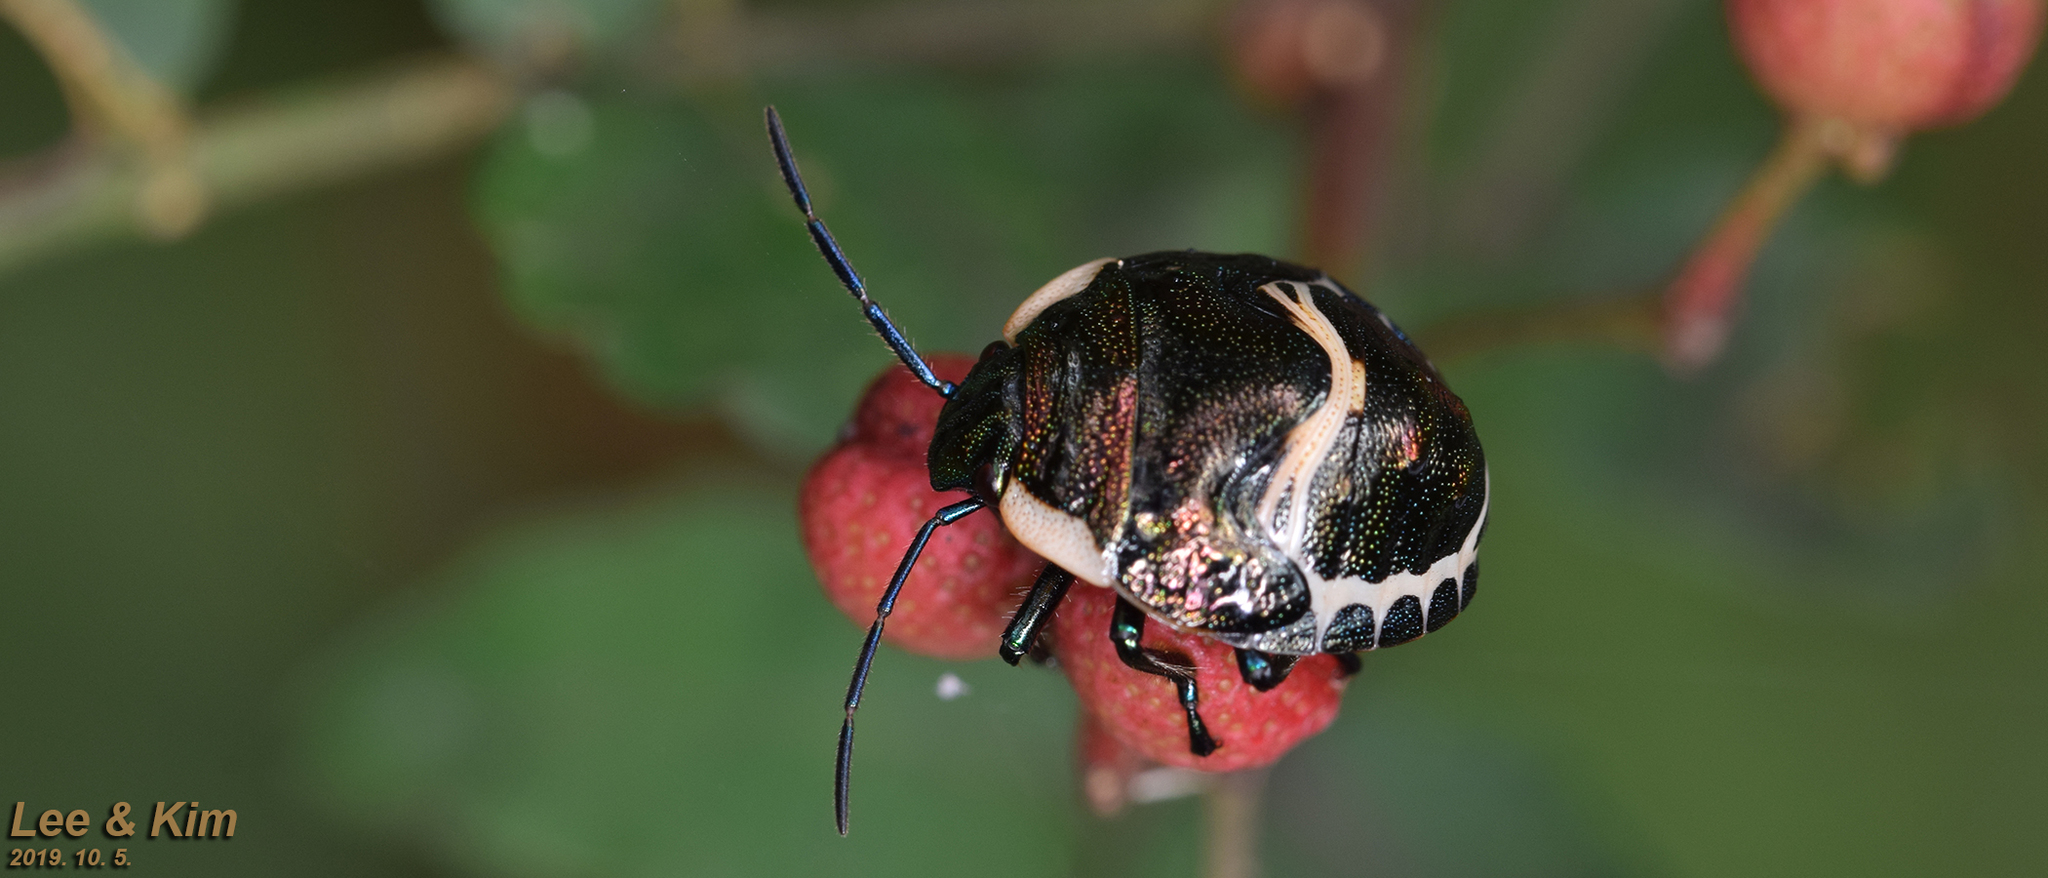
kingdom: Animalia
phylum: Arthropoda
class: Insecta
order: Hemiptera
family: Scutelleridae
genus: Poecilocoris
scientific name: Poecilocoris lewisi
